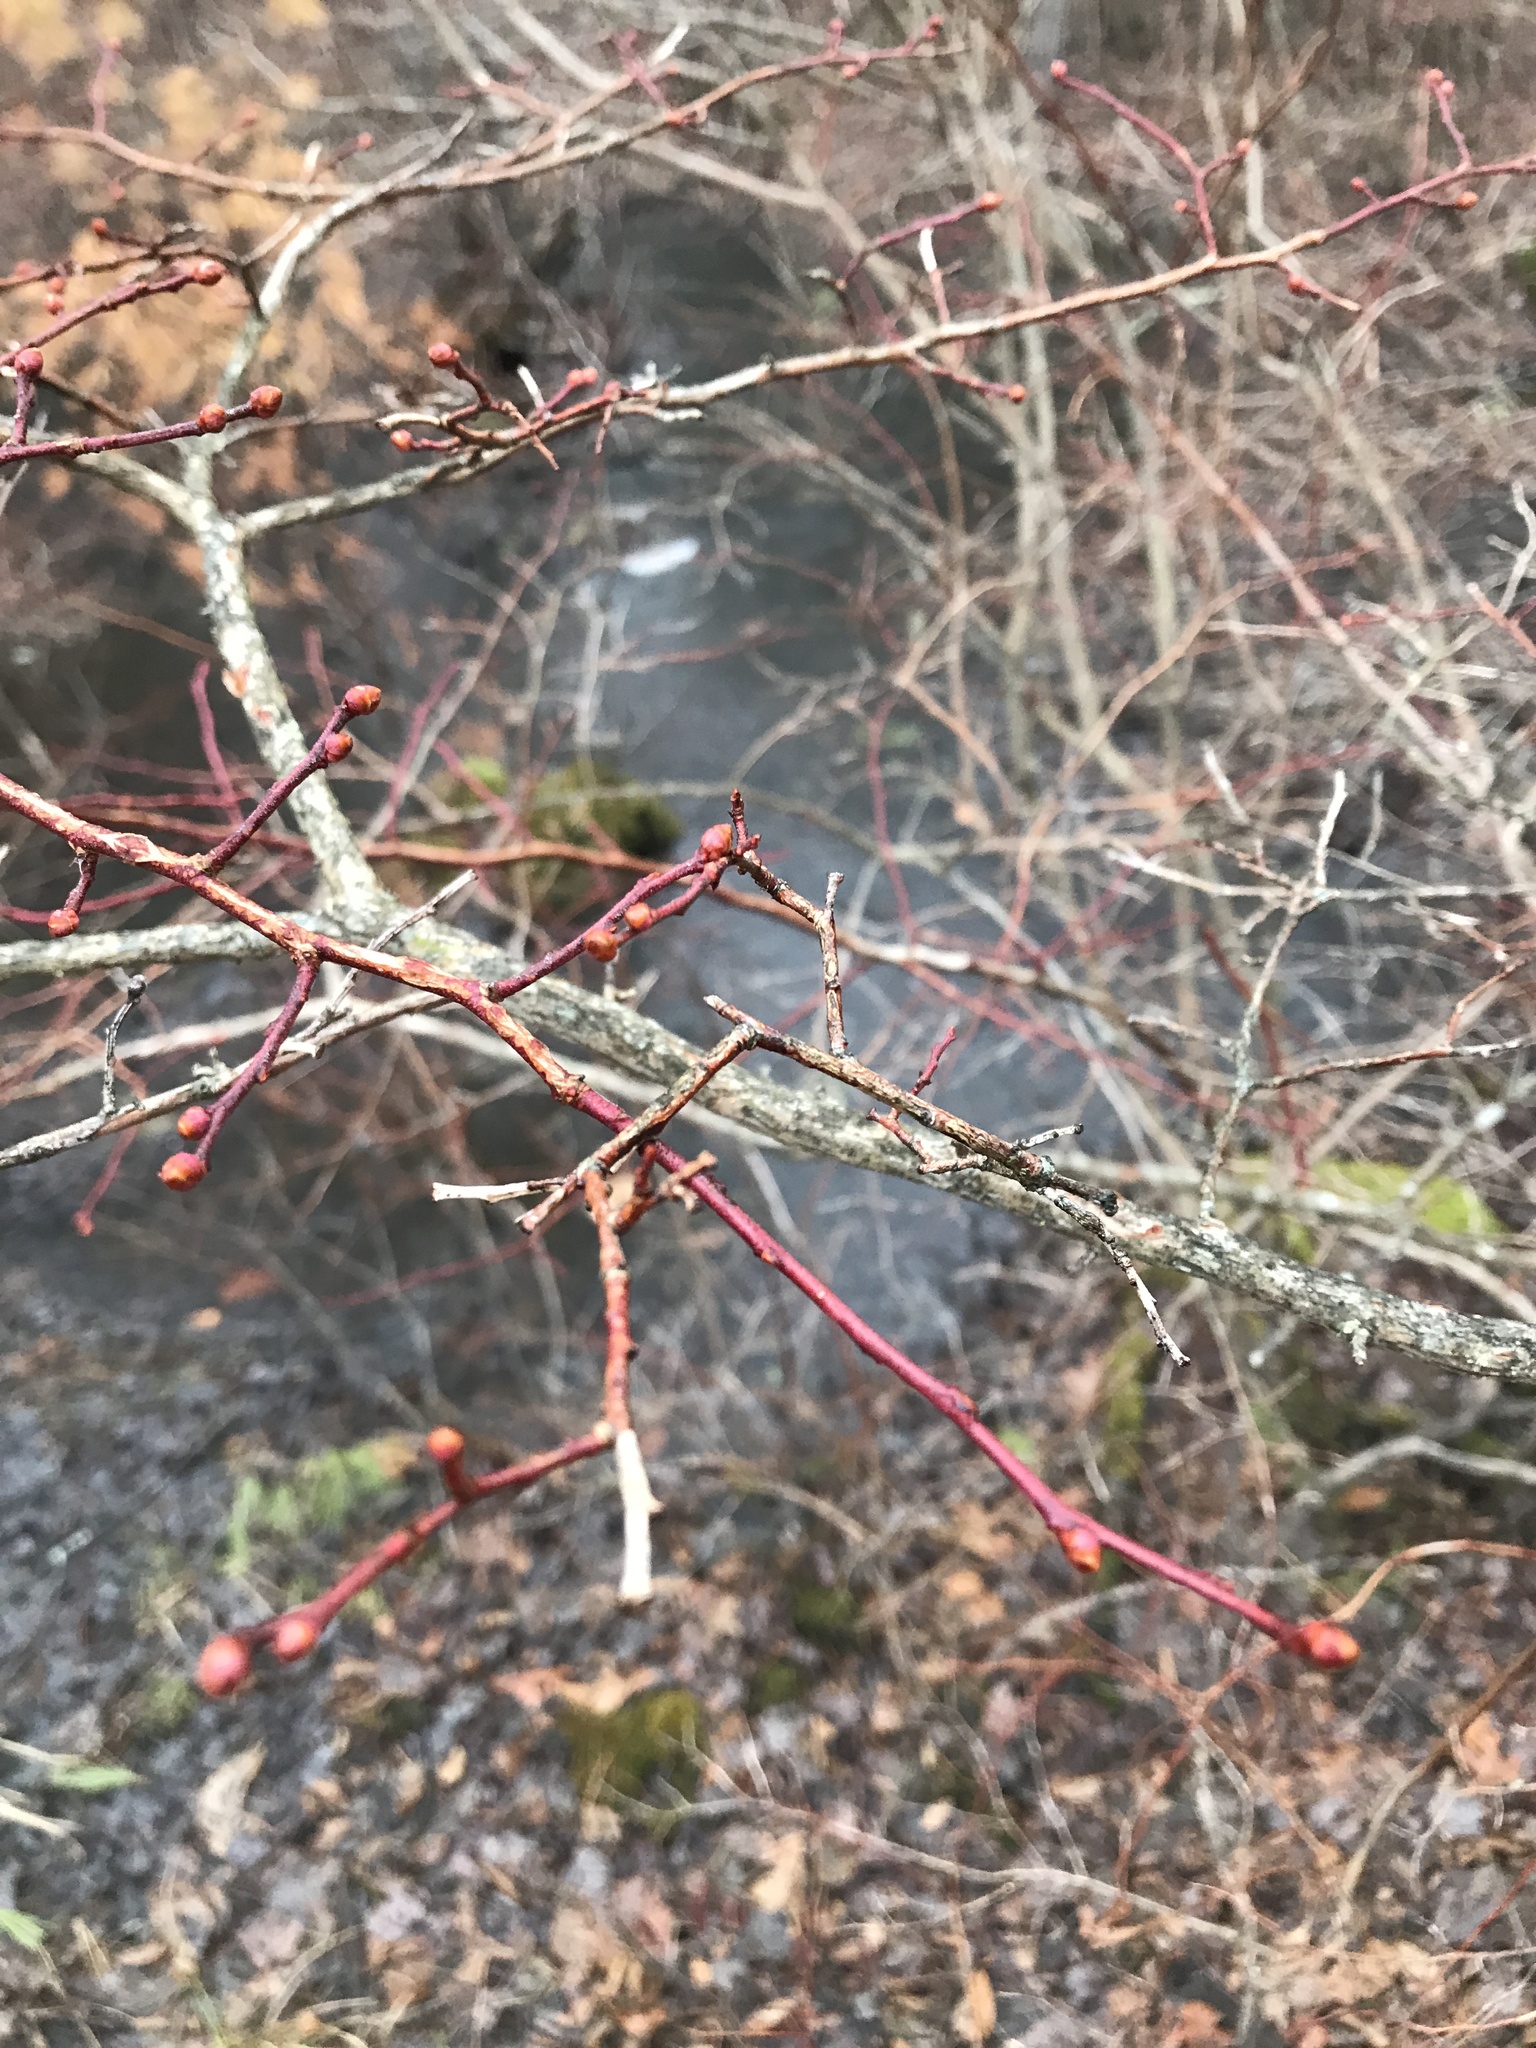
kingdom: Plantae
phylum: Tracheophyta
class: Magnoliopsida
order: Ericales
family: Ericaceae
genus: Vaccinium
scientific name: Vaccinium corymbosum
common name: Blueberry
